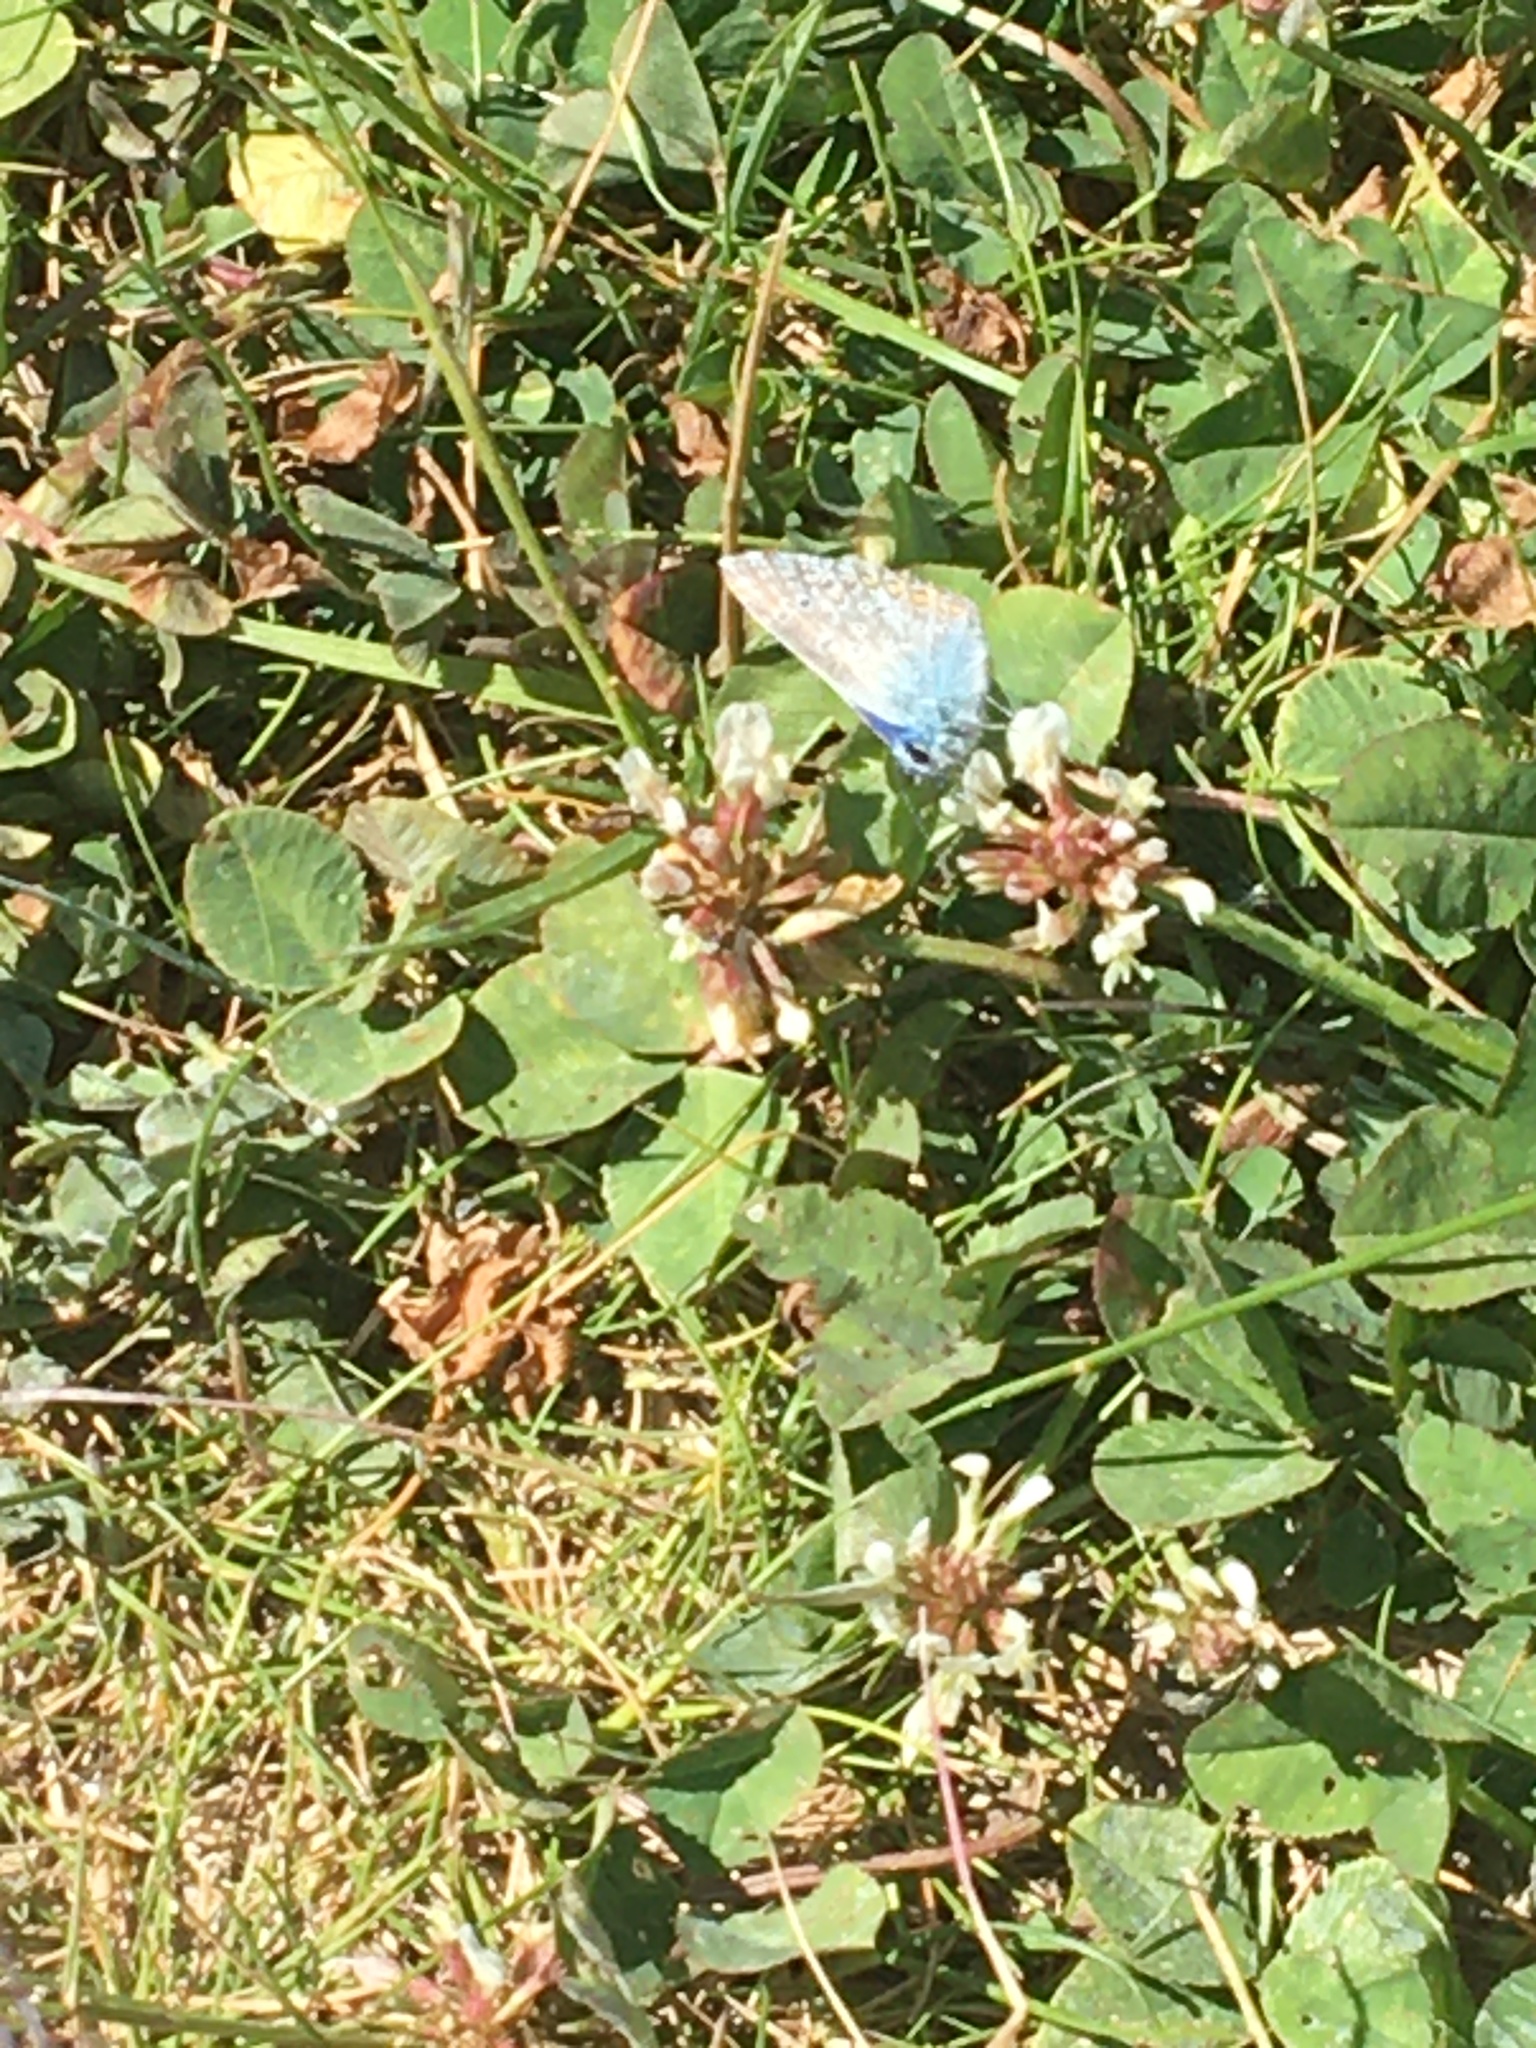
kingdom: Animalia
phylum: Arthropoda
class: Insecta
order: Lepidoptera
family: Lycaenidae
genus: Polyommatus
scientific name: Polyommatus icarus
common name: Common blue
